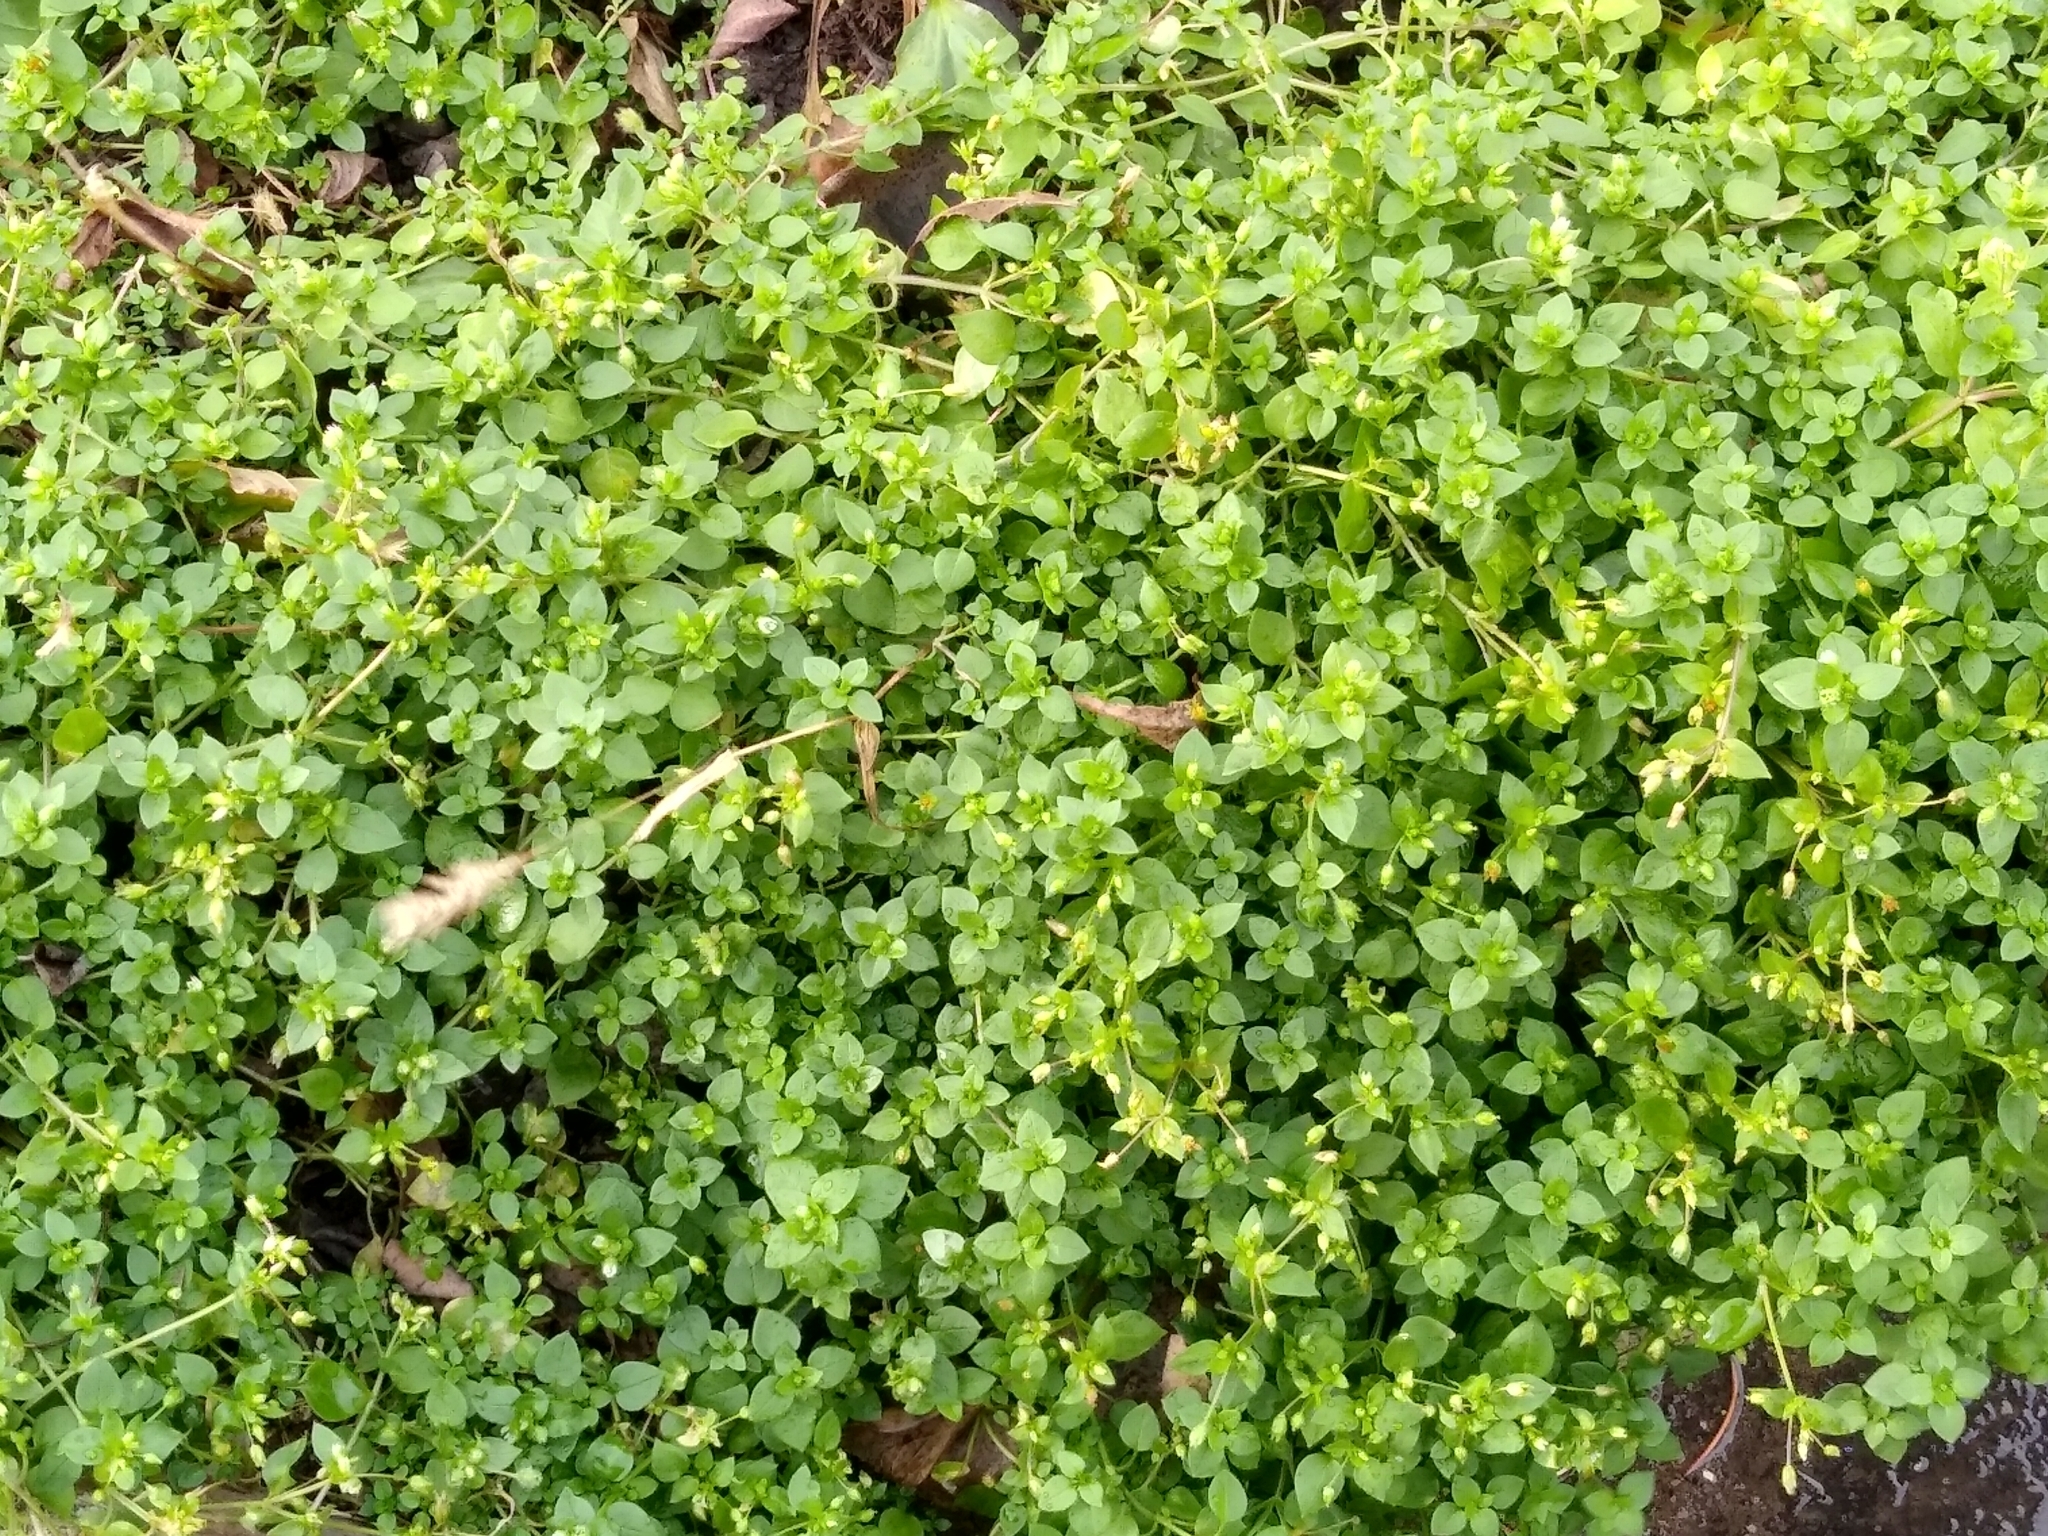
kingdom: Plantae
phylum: Tracheophyta
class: Magnoliopsida
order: Caryophyllales
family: Caryophyllaceae
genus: Stellaria
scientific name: Stellaria media
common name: Common chickweed
